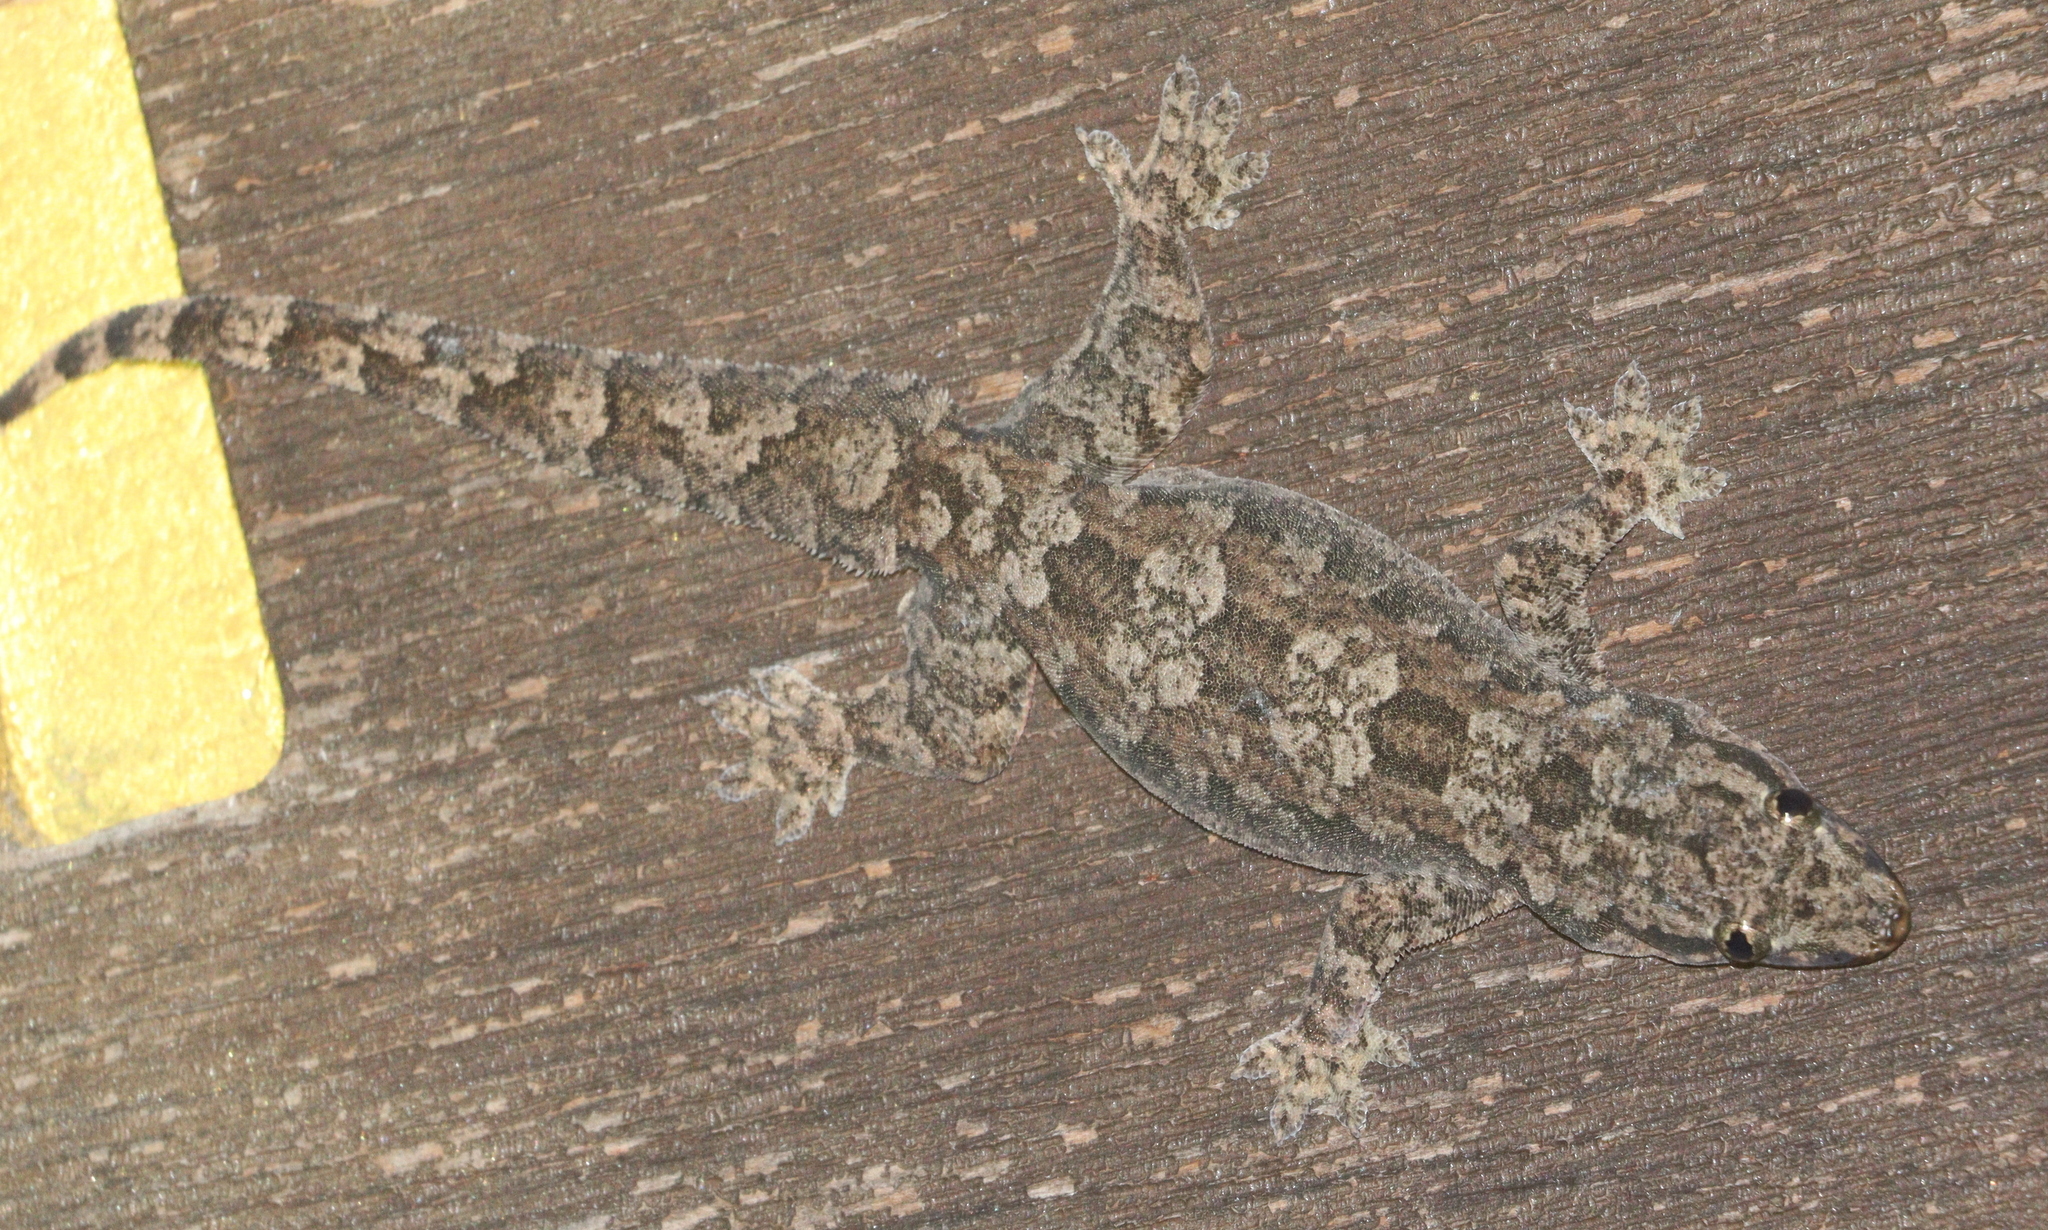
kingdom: Animalia
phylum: Chordata
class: Squamata
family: Gekkonidae
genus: Hemidactylus
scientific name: Hemidactylus platyurus
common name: Flat-tailed house gecko
